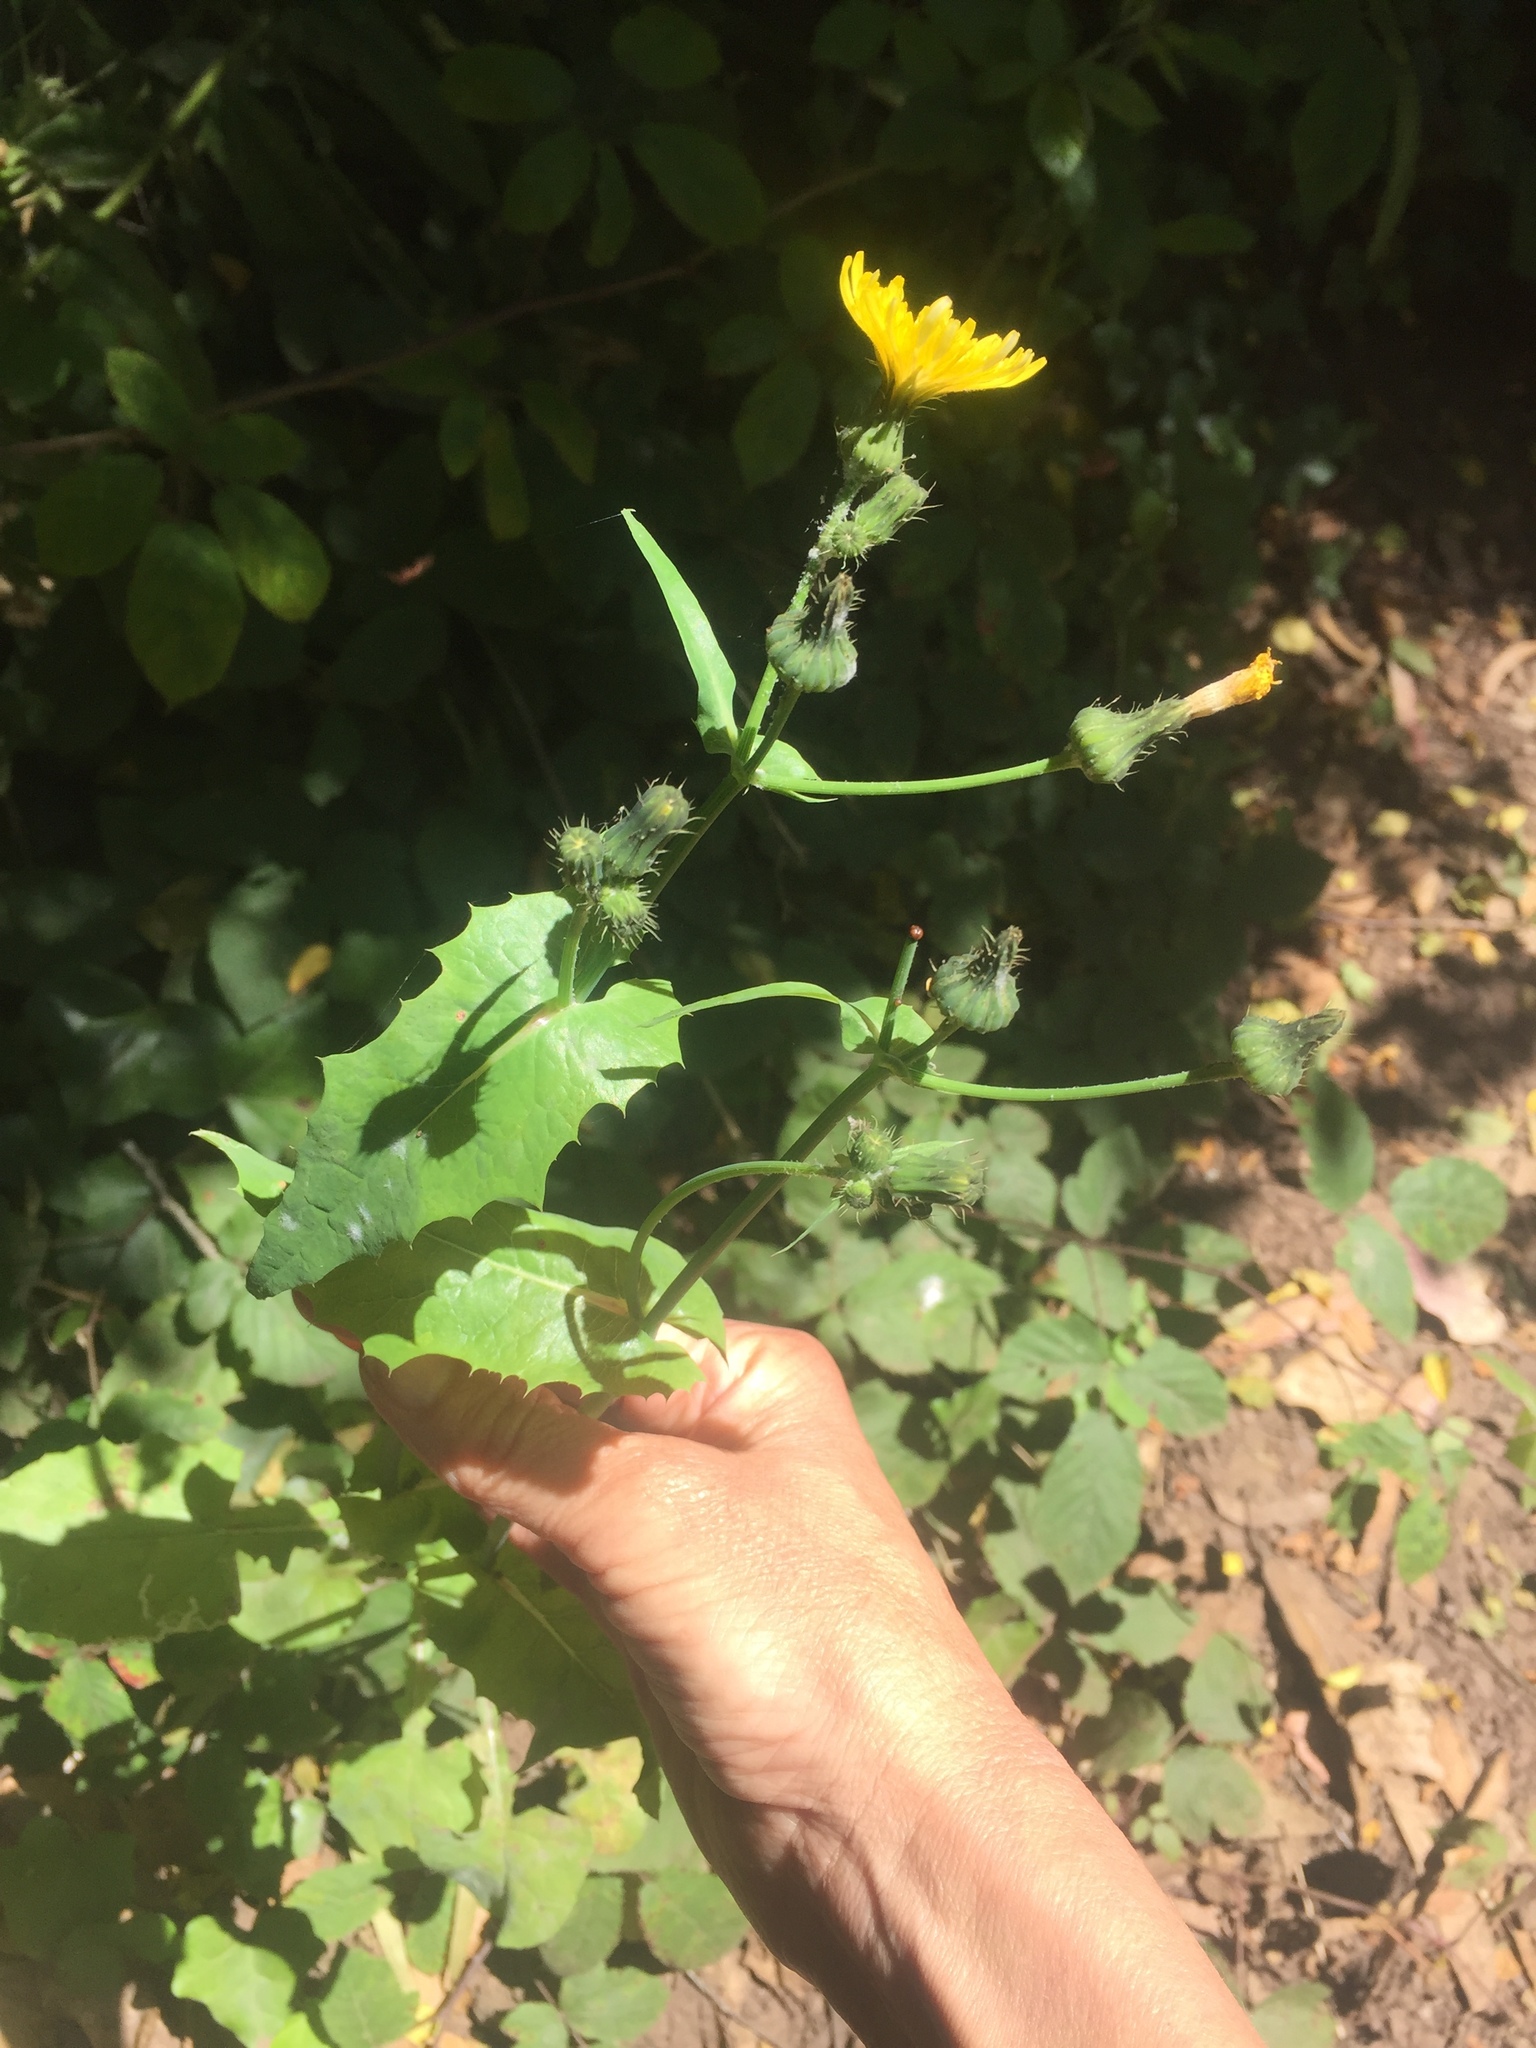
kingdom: Plantae
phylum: Tracheophyta
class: Magnoliopsida
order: Asterales
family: Asteraceae
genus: Sonchus
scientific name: Sonchus oleraceus
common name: Common sowthistle
